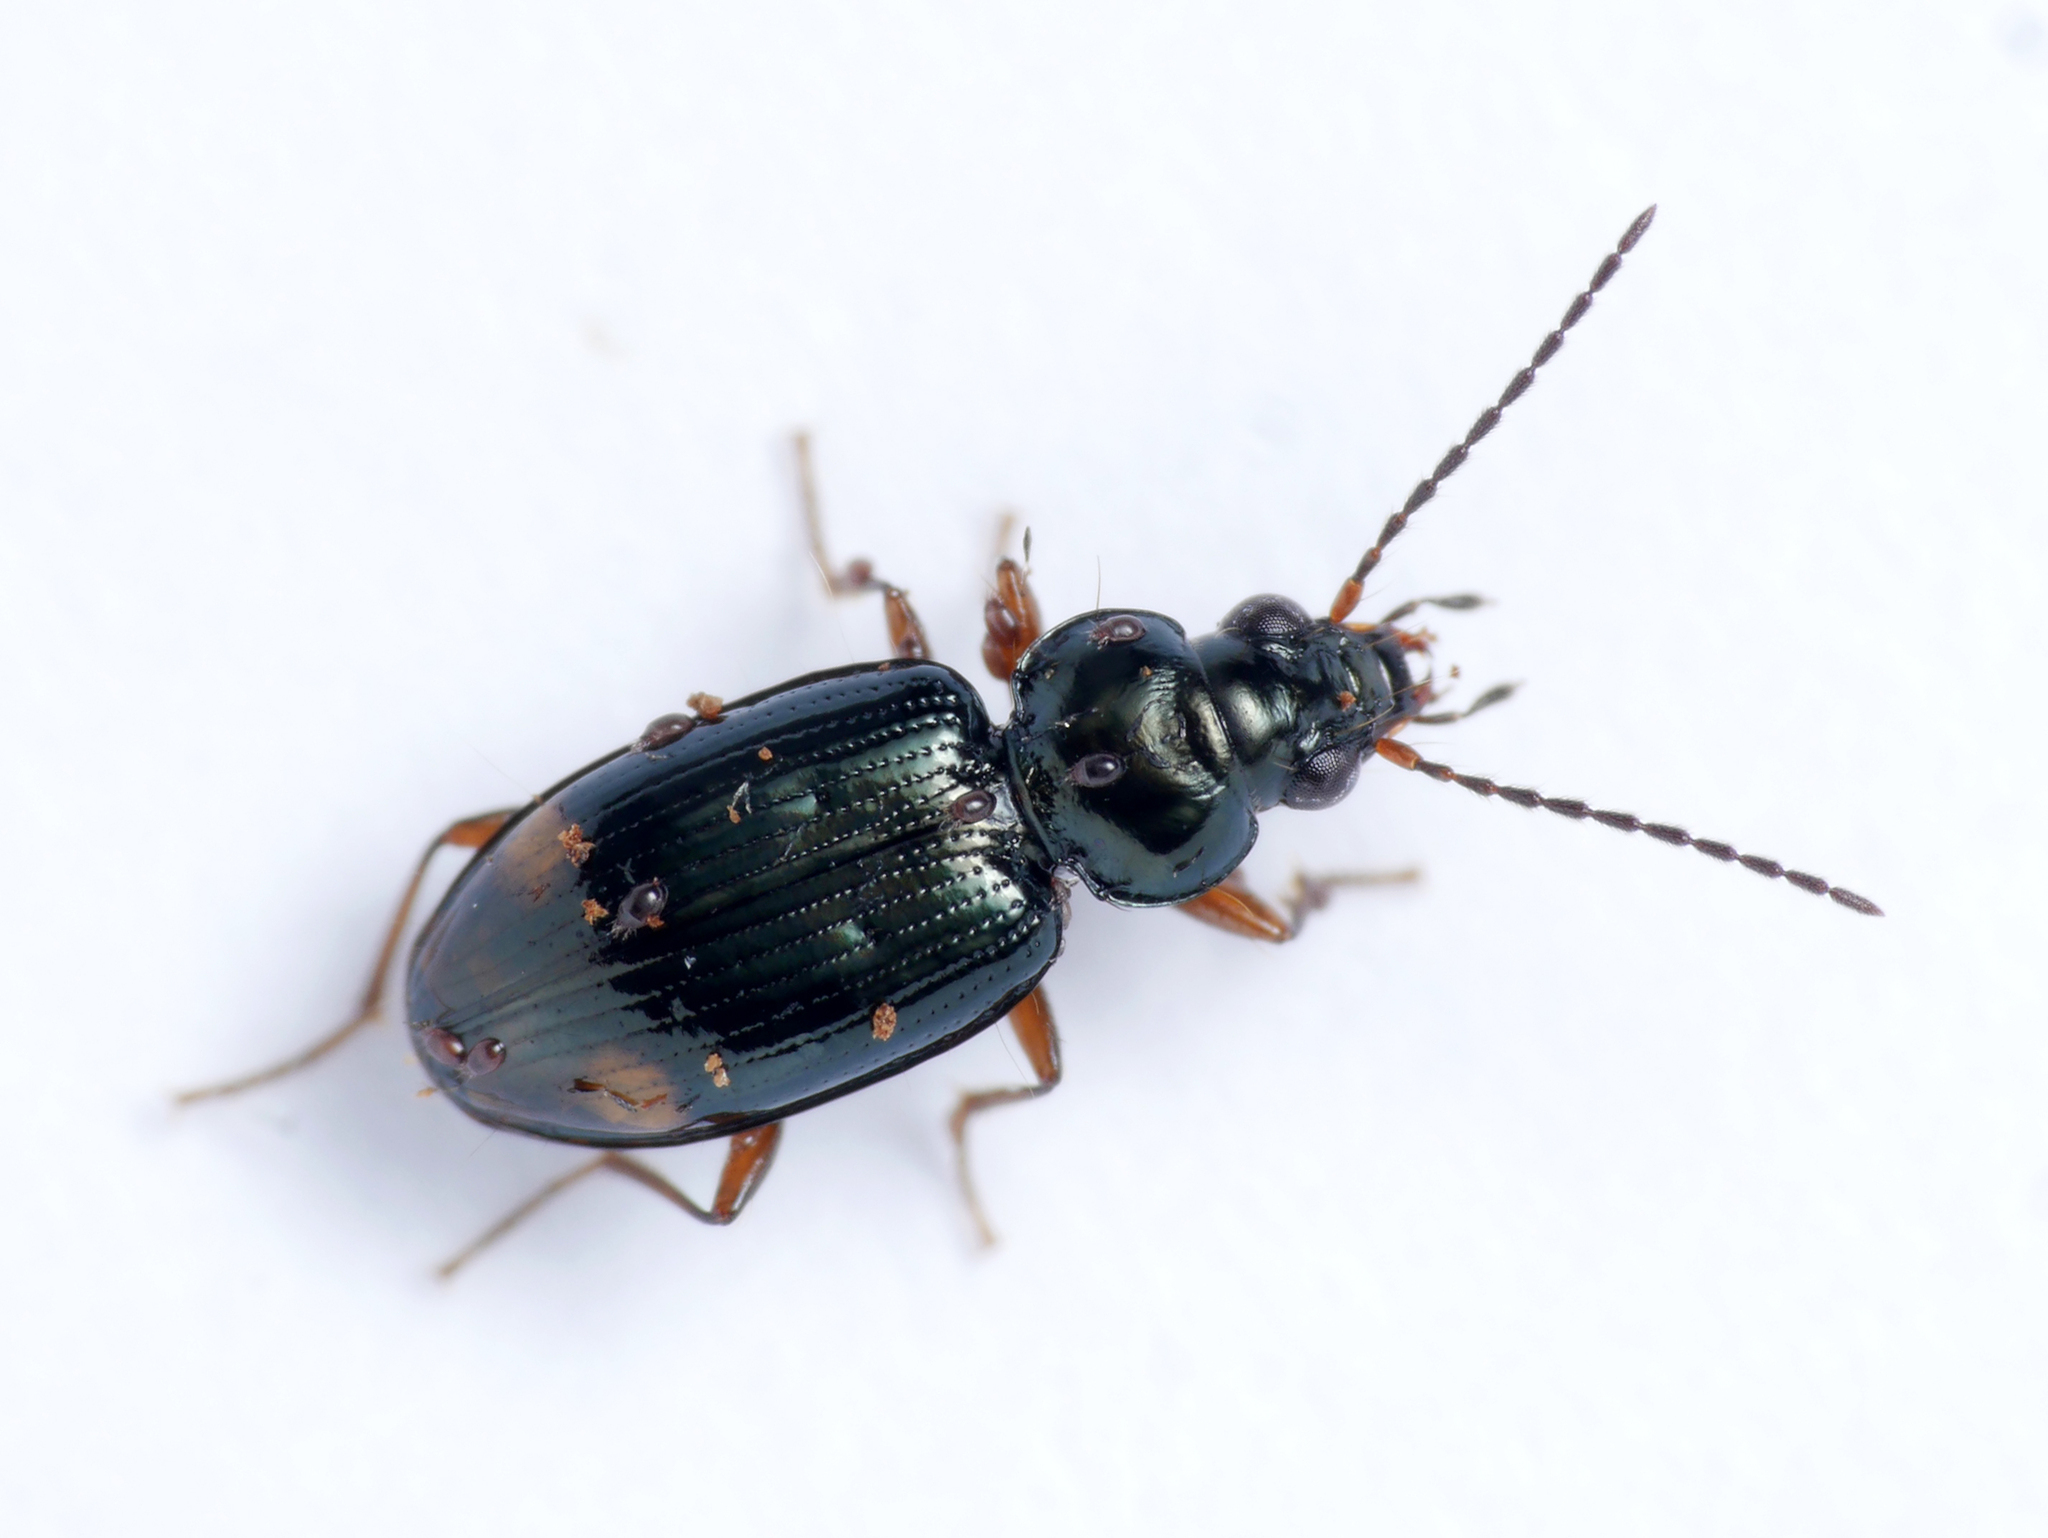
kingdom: Animalia
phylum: Arthropoda
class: Insecta
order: Coleoptera
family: Carabidae
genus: Bembidion
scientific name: Bembidion biguttatum
